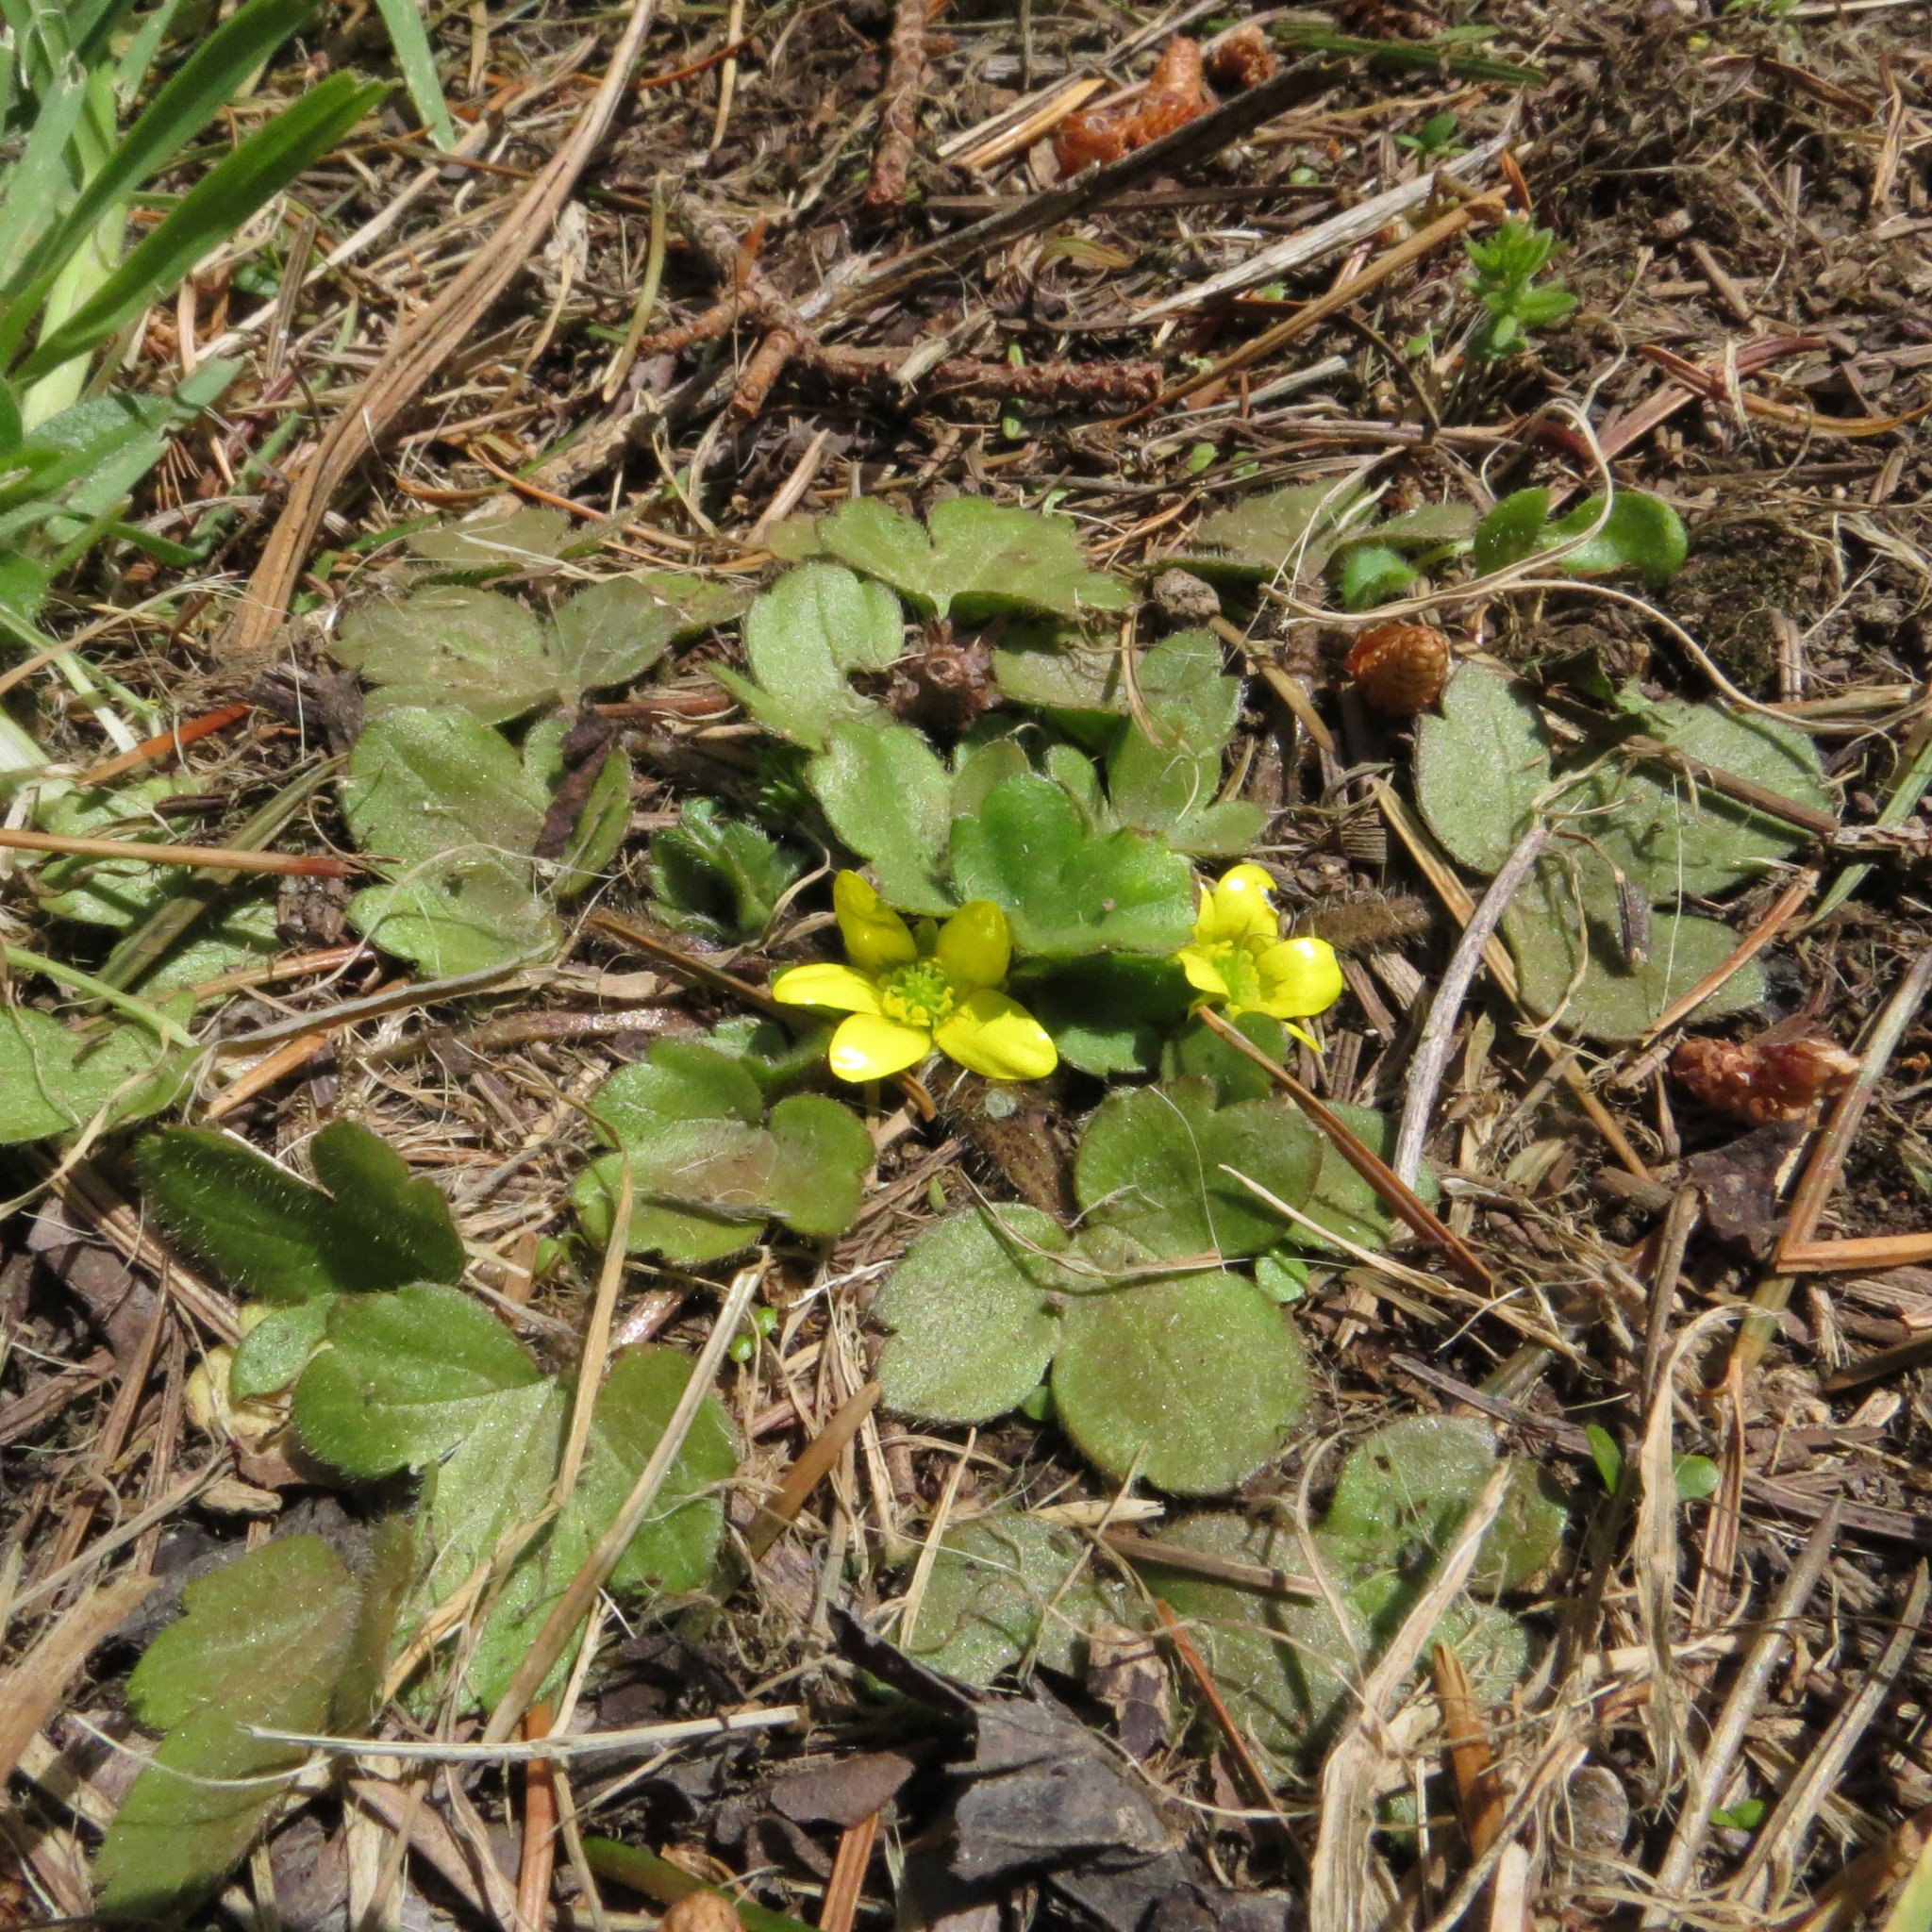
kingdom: Plantae
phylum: Tracheophyta
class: Magnoliopsida
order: Ranunculales
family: Ranunculaceae
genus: Ranunculus
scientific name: Ranunculus royi
